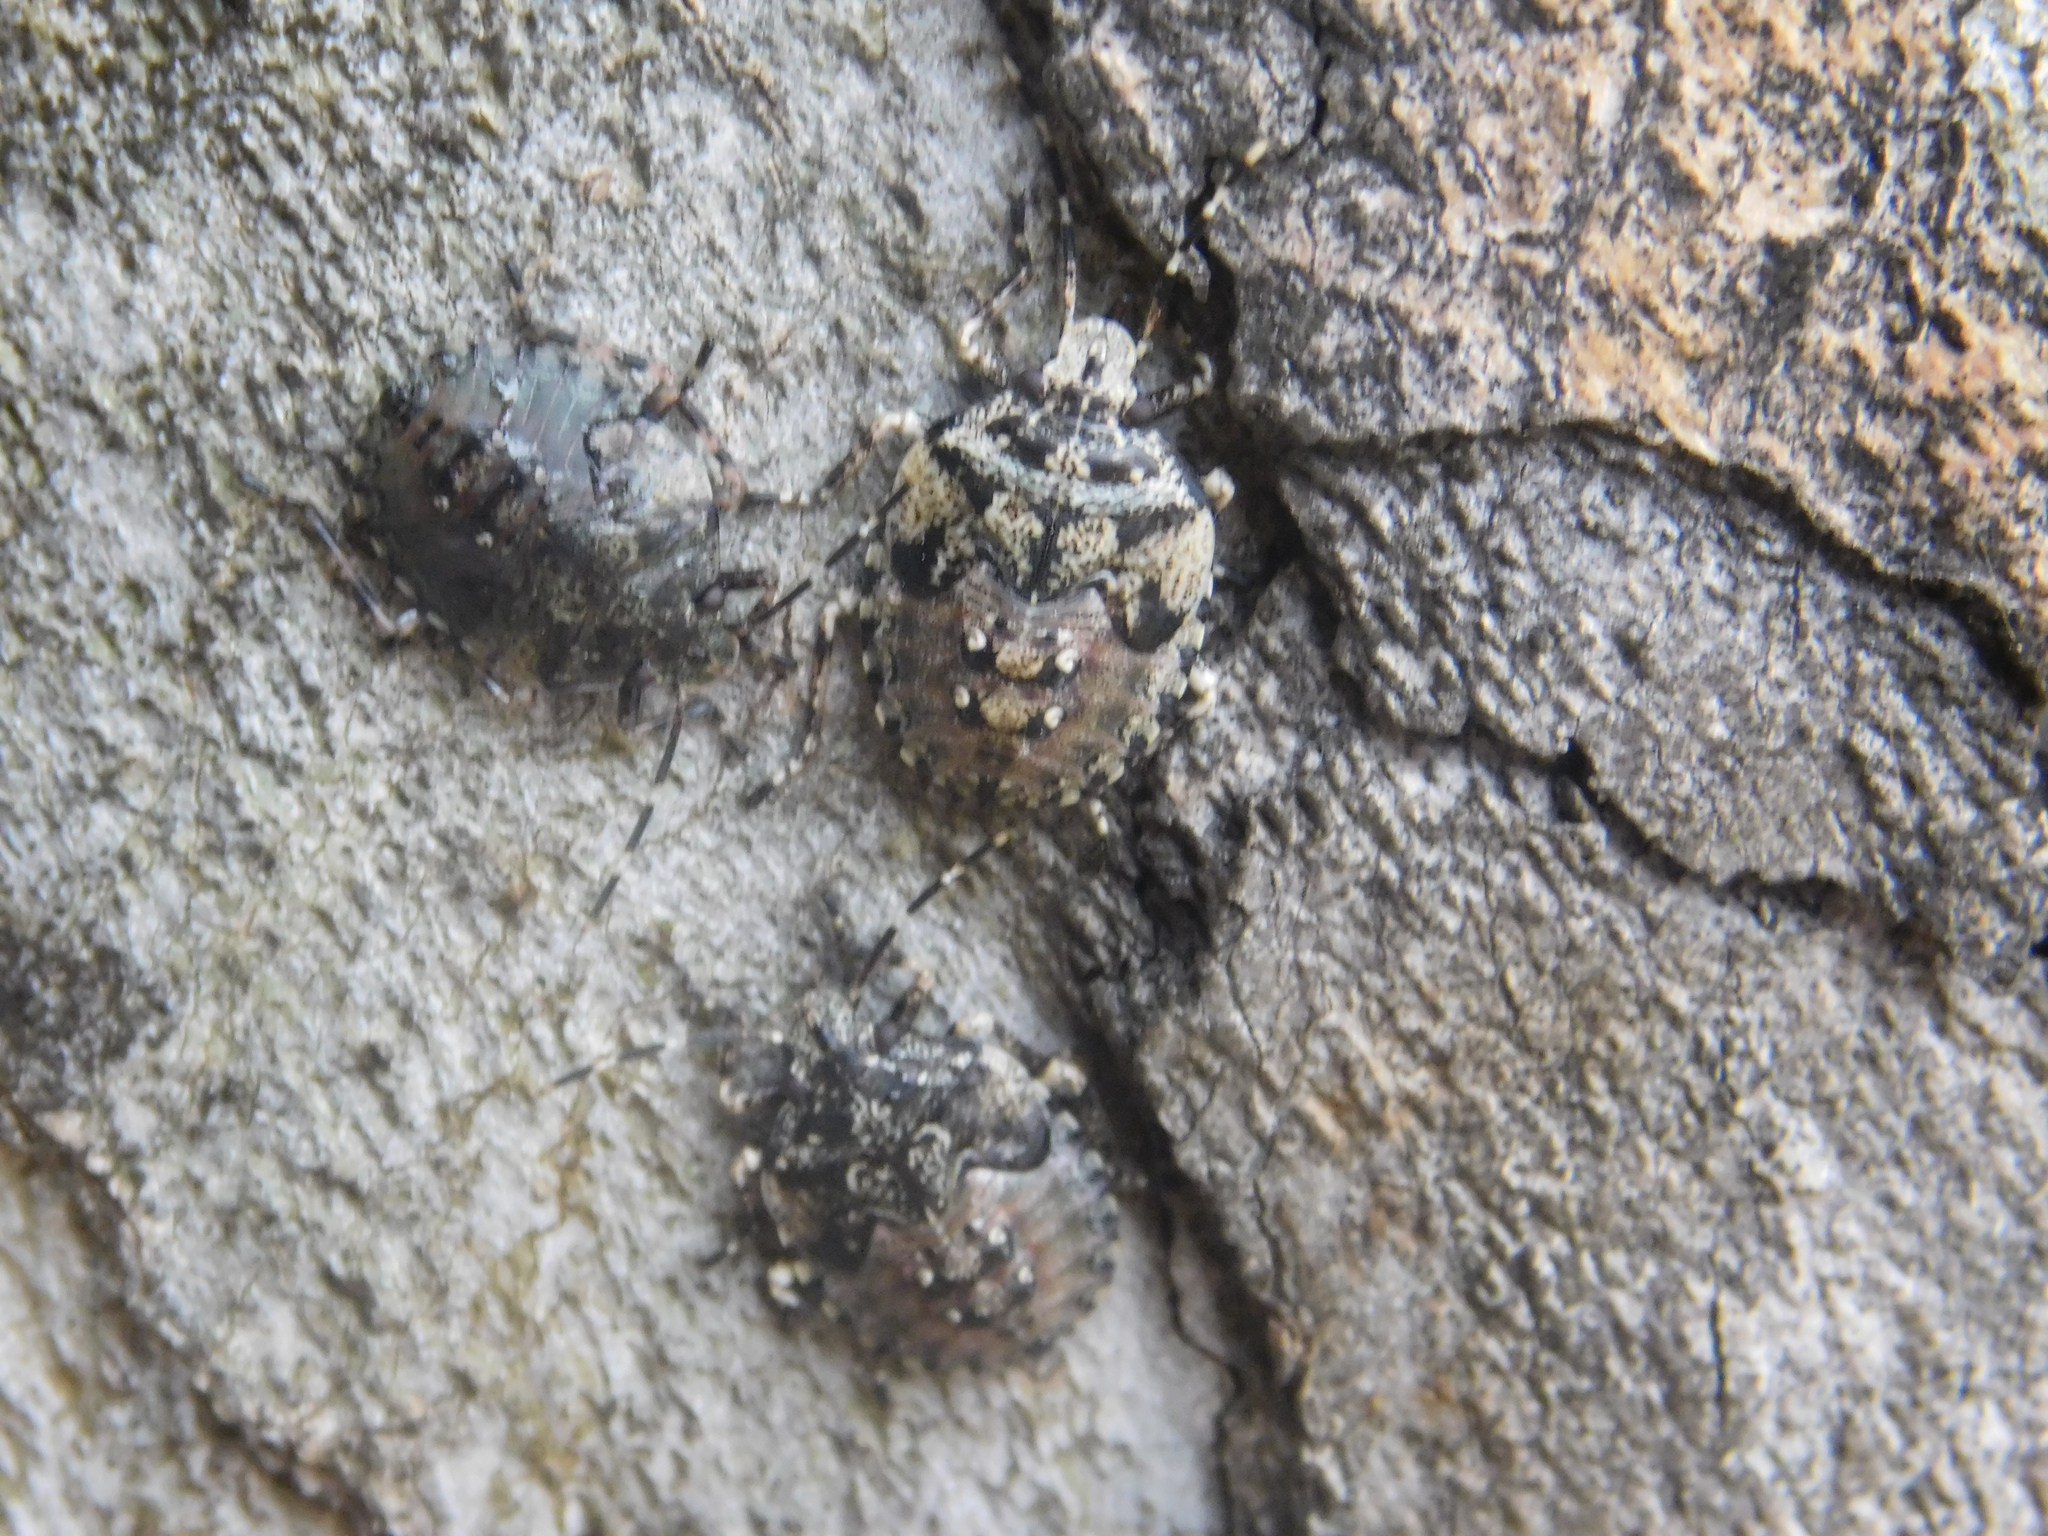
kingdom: Animalia
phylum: Arthropoda
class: Insecta
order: Hemiptera
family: Pentatomidae
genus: Antiteuchus
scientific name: Antiteuchus mixtus
